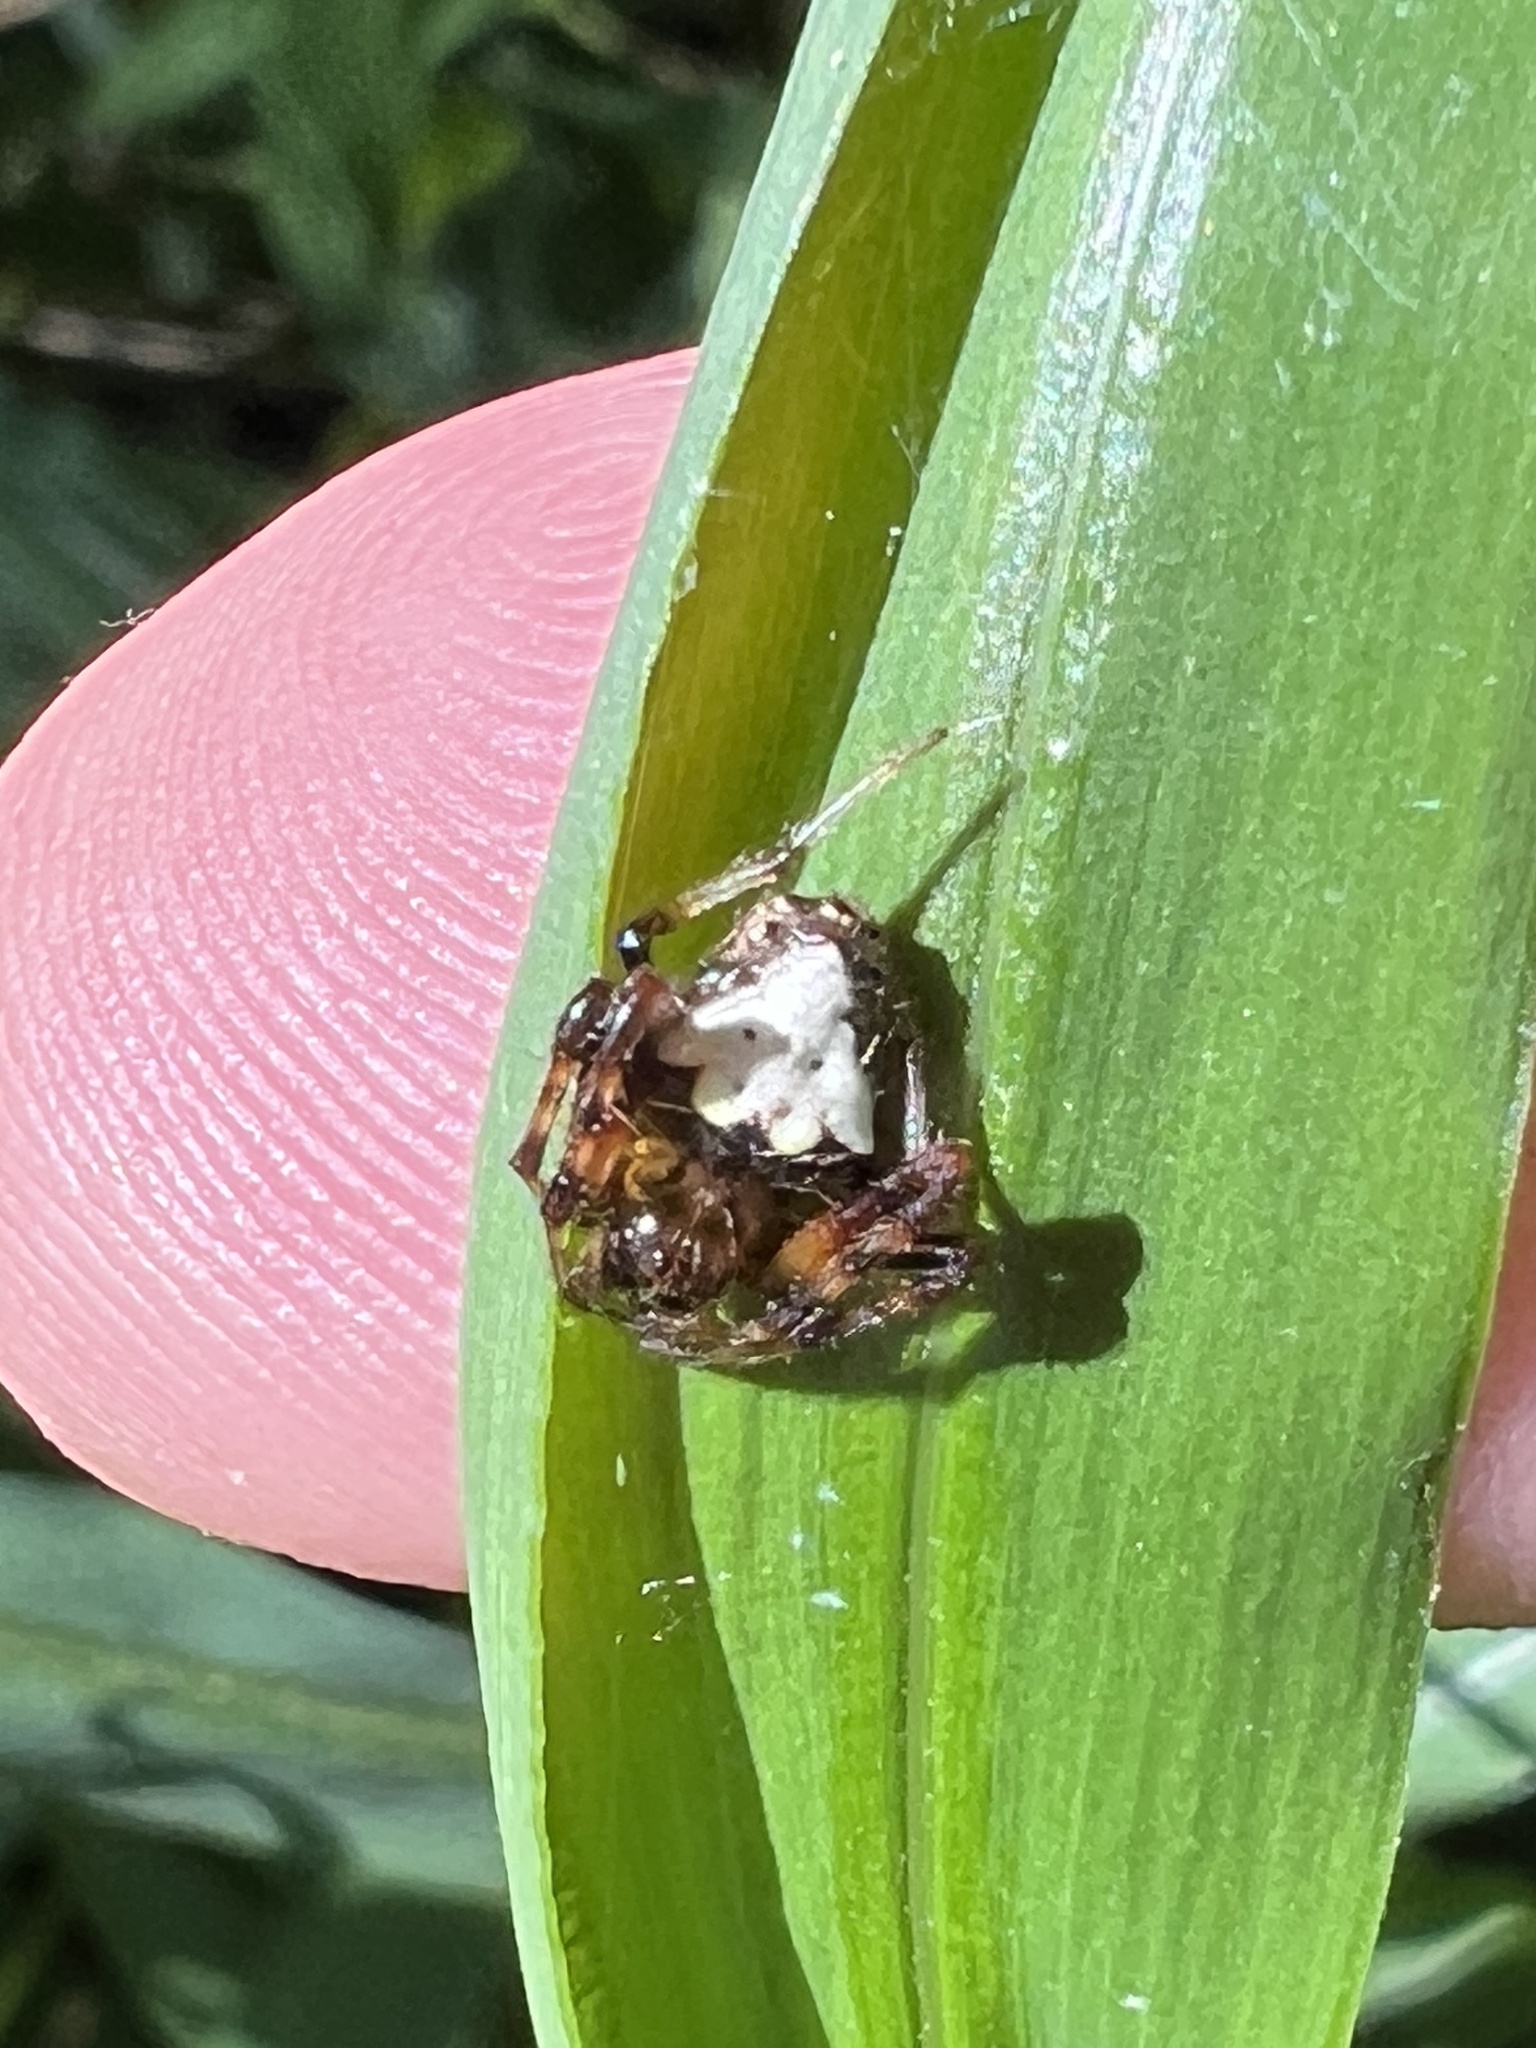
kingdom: Animalia
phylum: Arthropoda
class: Arachnida
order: Araneae
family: Araneidae
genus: Verrucosa
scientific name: Verrucosa arenata
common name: Orb weavers
